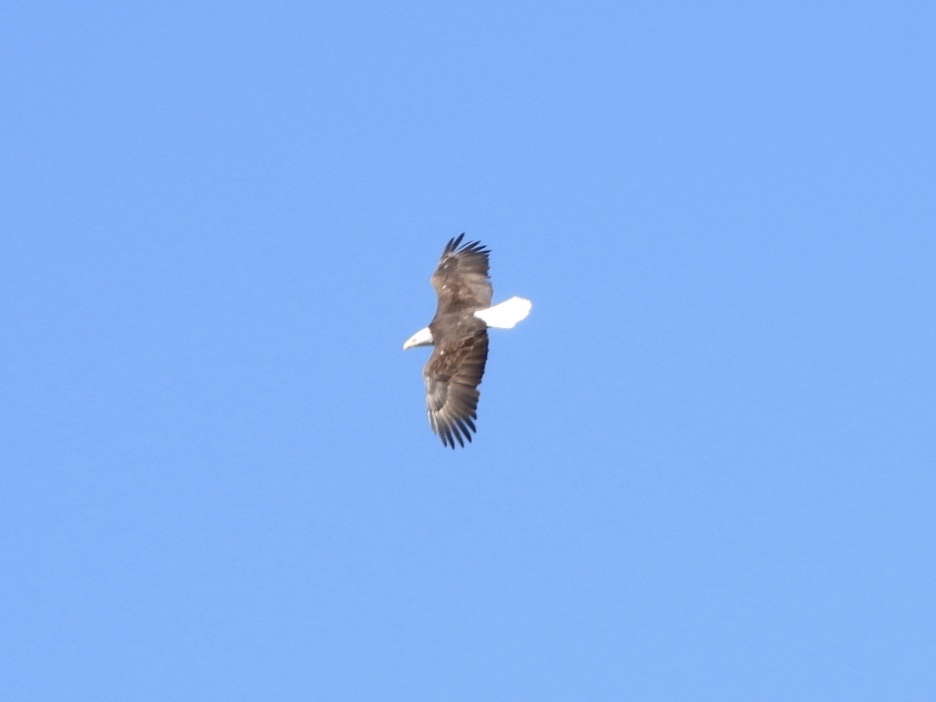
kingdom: Animalia
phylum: Chordata
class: Aves
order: Accipitriformes
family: Accipitridae
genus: Haliaeetus
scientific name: Haliaeetus leucocephalus
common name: Bald eagle
